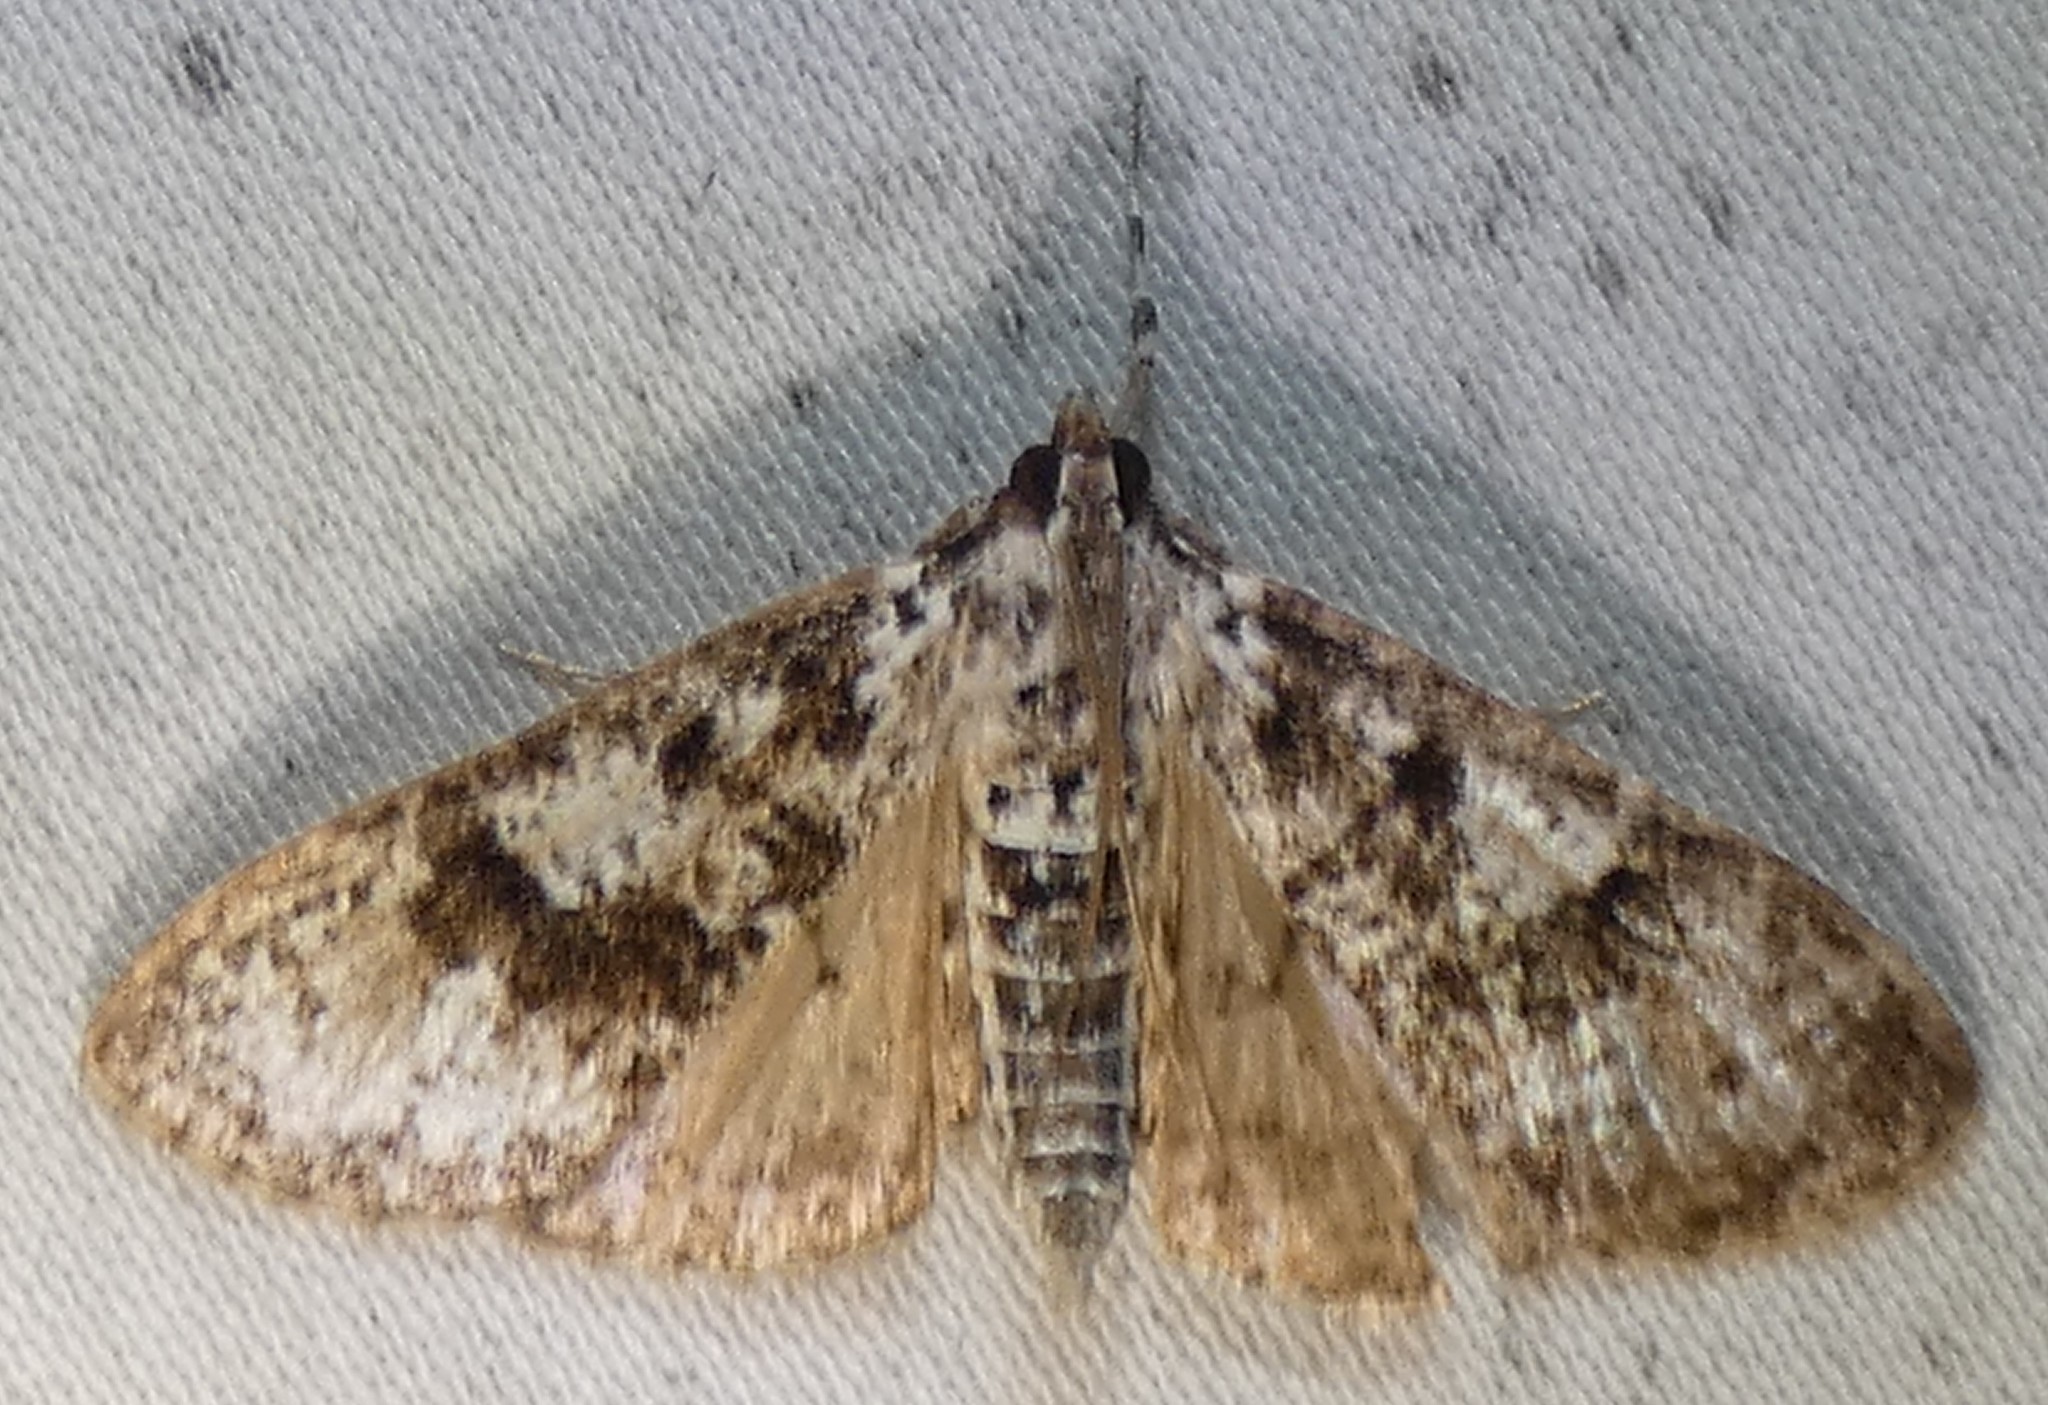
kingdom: Animalia
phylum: Arthropoda
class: Insecta
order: Lepidoptera
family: Crambidae
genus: Palpita
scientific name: Palpita magniferalis
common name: Splendid palpita moth
